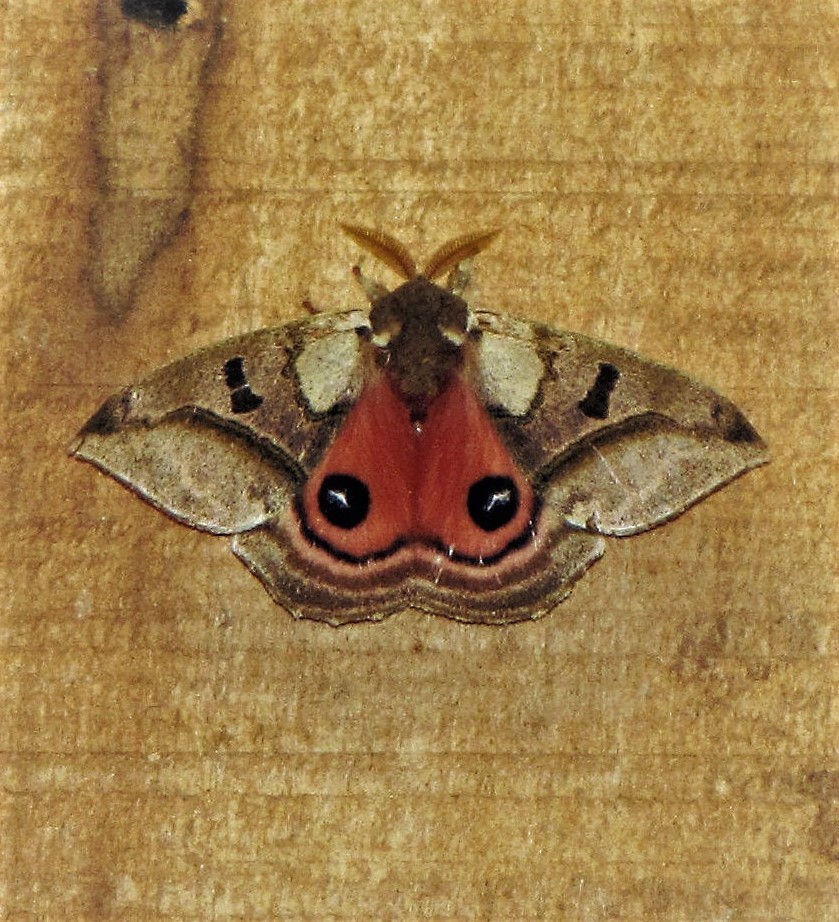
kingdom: Animalia
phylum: Arthropoda
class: Insecta
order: Lepidoptera
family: Saturniidae
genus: Automerella
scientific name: Automerella aurora
